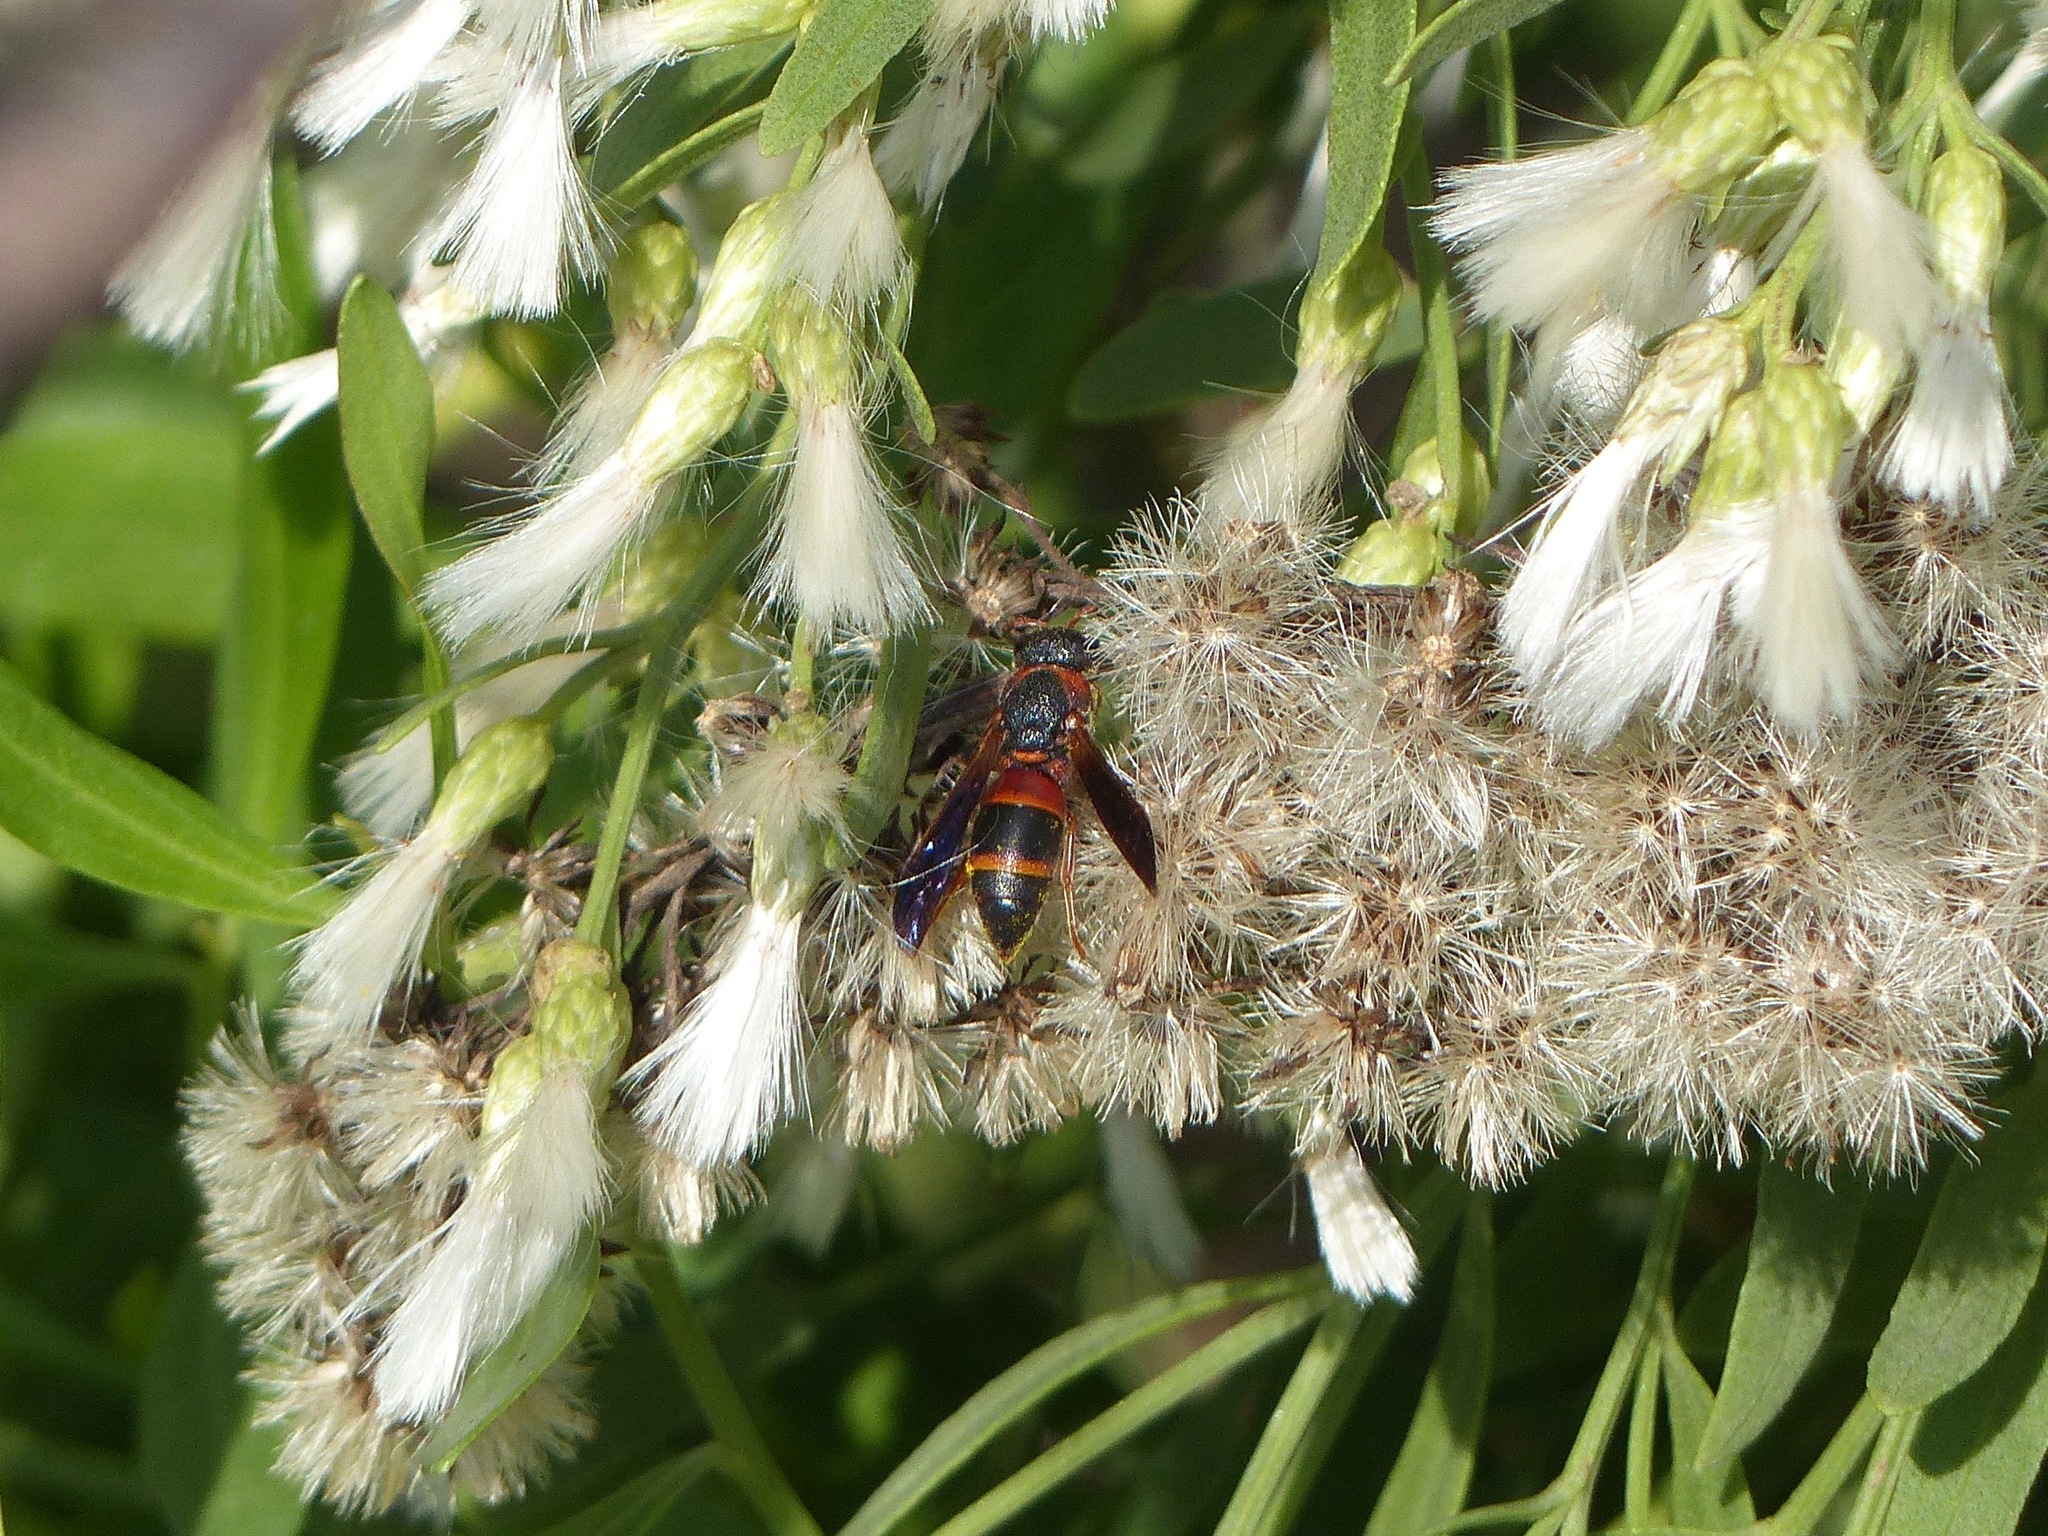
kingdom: Animalia
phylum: Arthropoda
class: Insecta
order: Hymenoptera
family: Eumenidae
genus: Pachodynerus
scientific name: Pachodynerus erynnis
